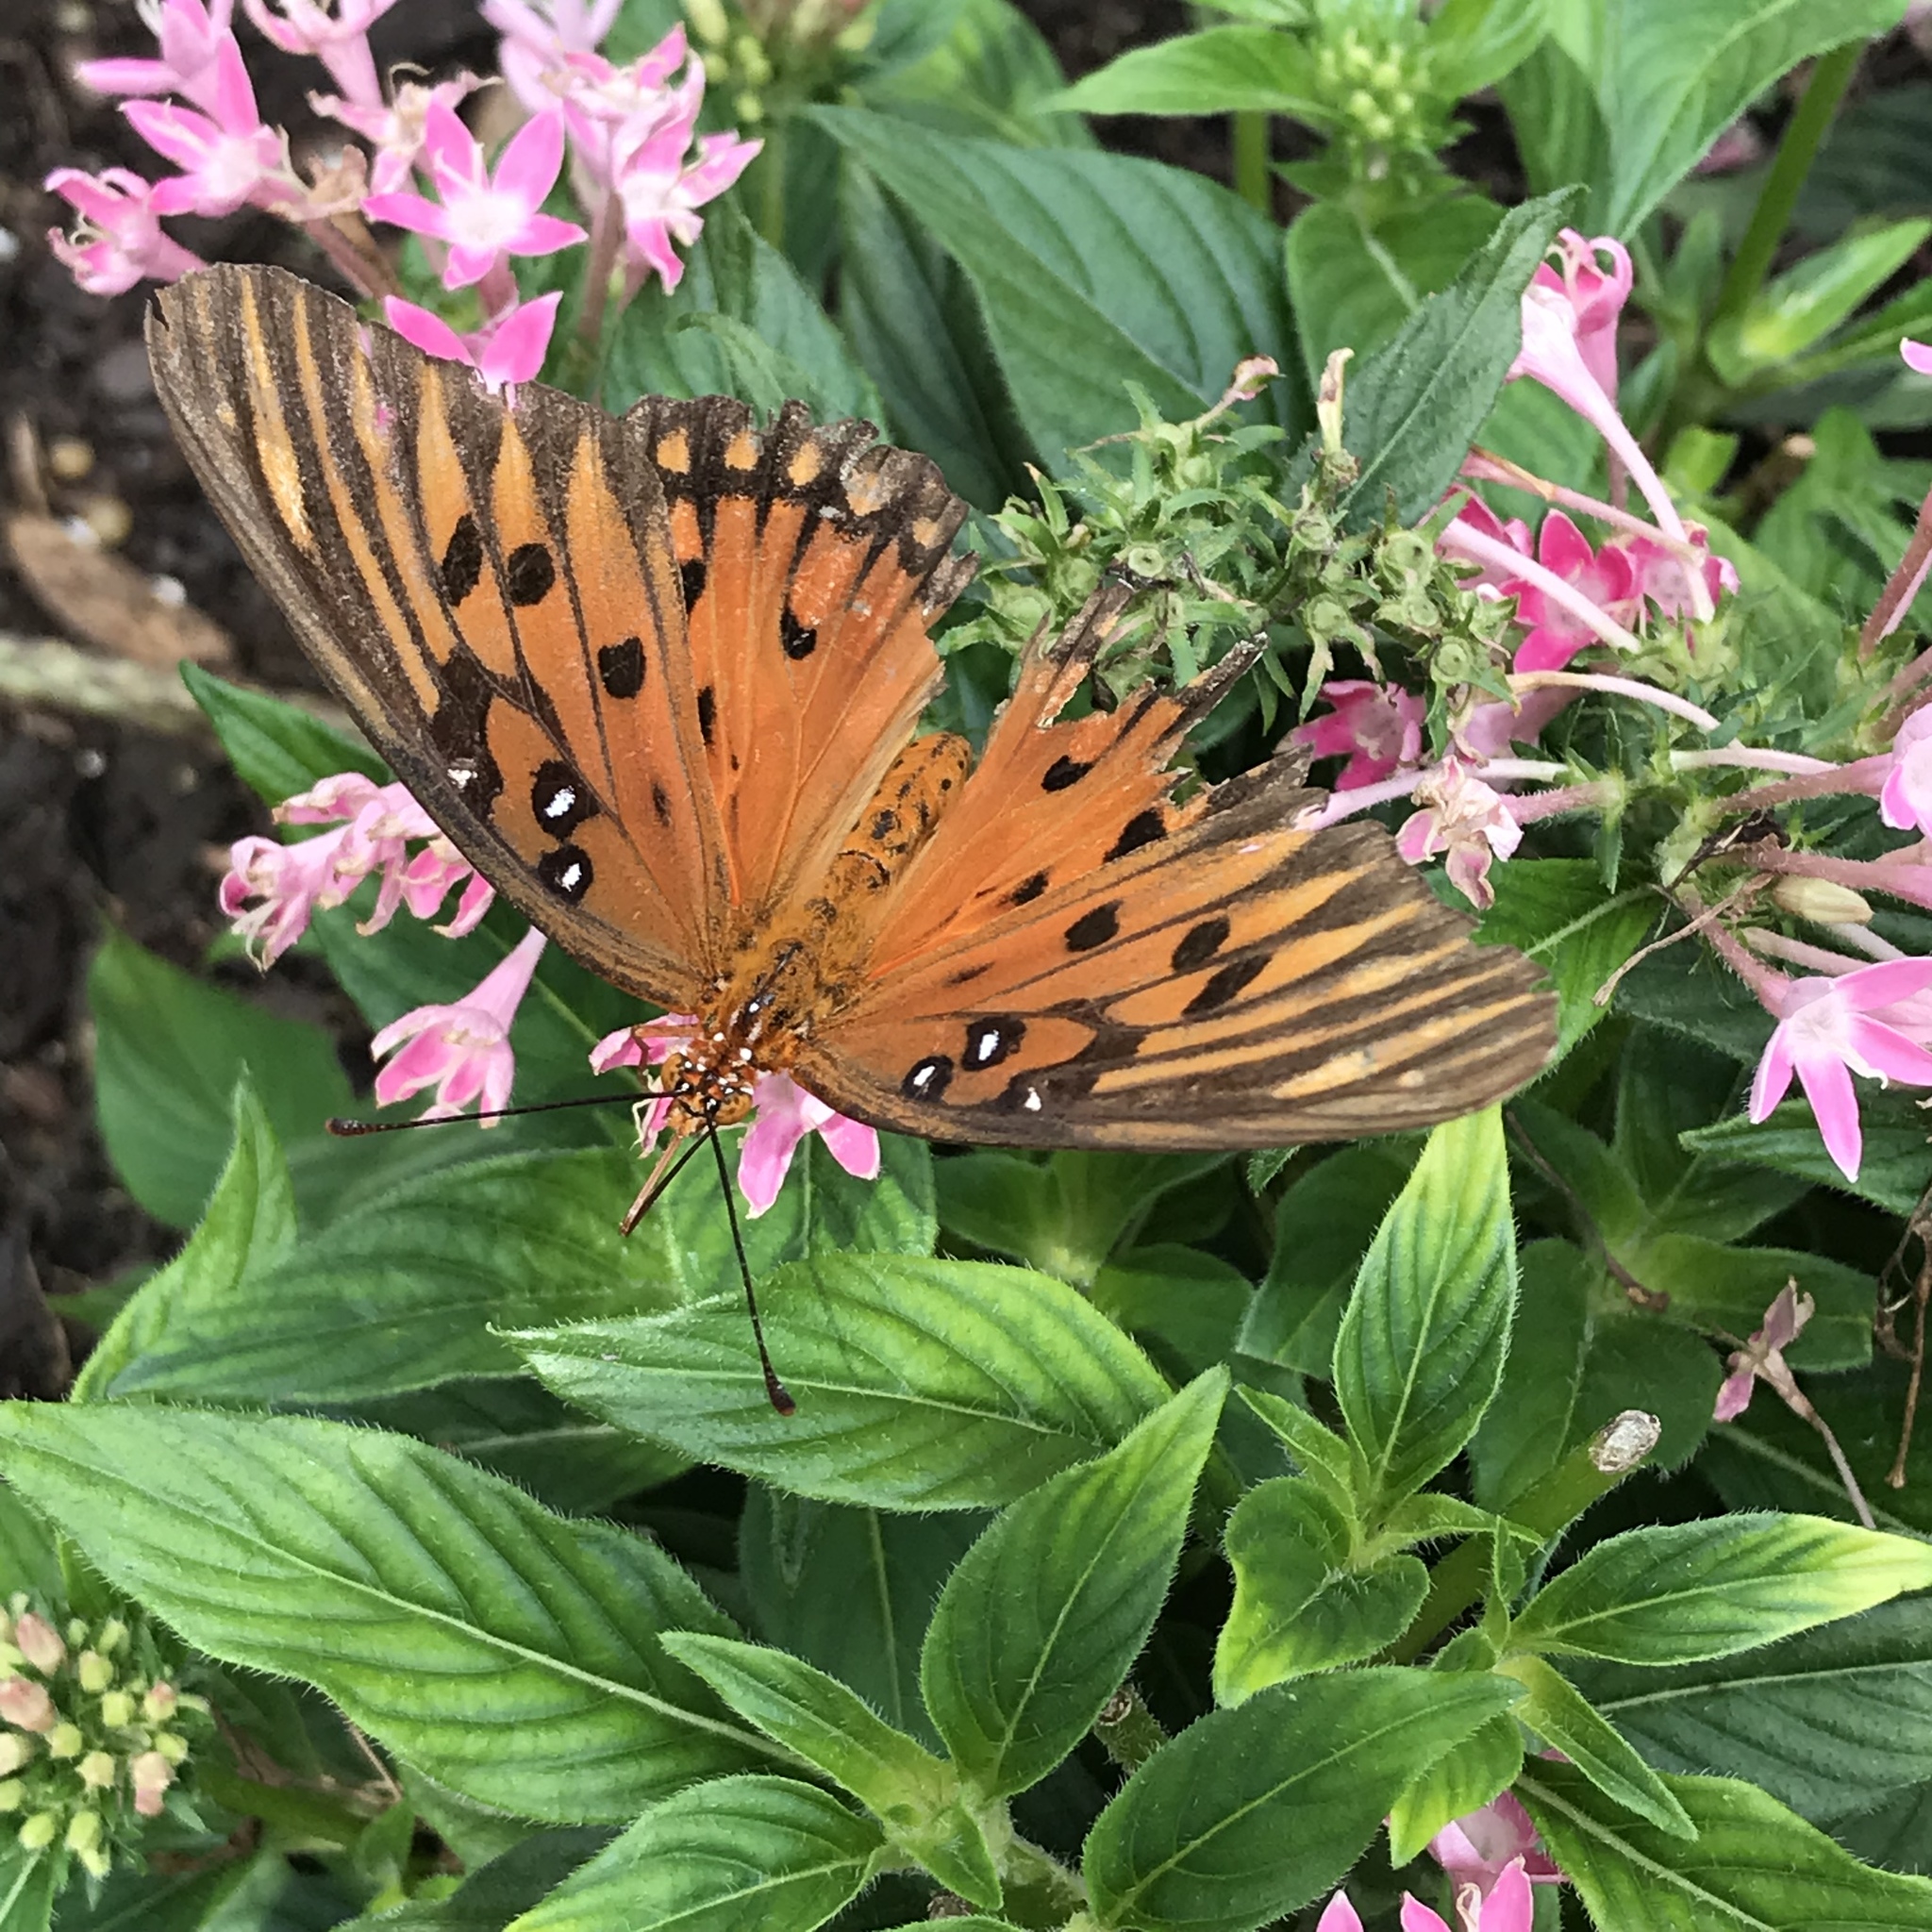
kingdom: Animalia
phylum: Arthropoda
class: Insecta
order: Lepidoptera
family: Nymphalidae
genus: Dione
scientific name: Dione vanillae
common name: Gulf fritillary
